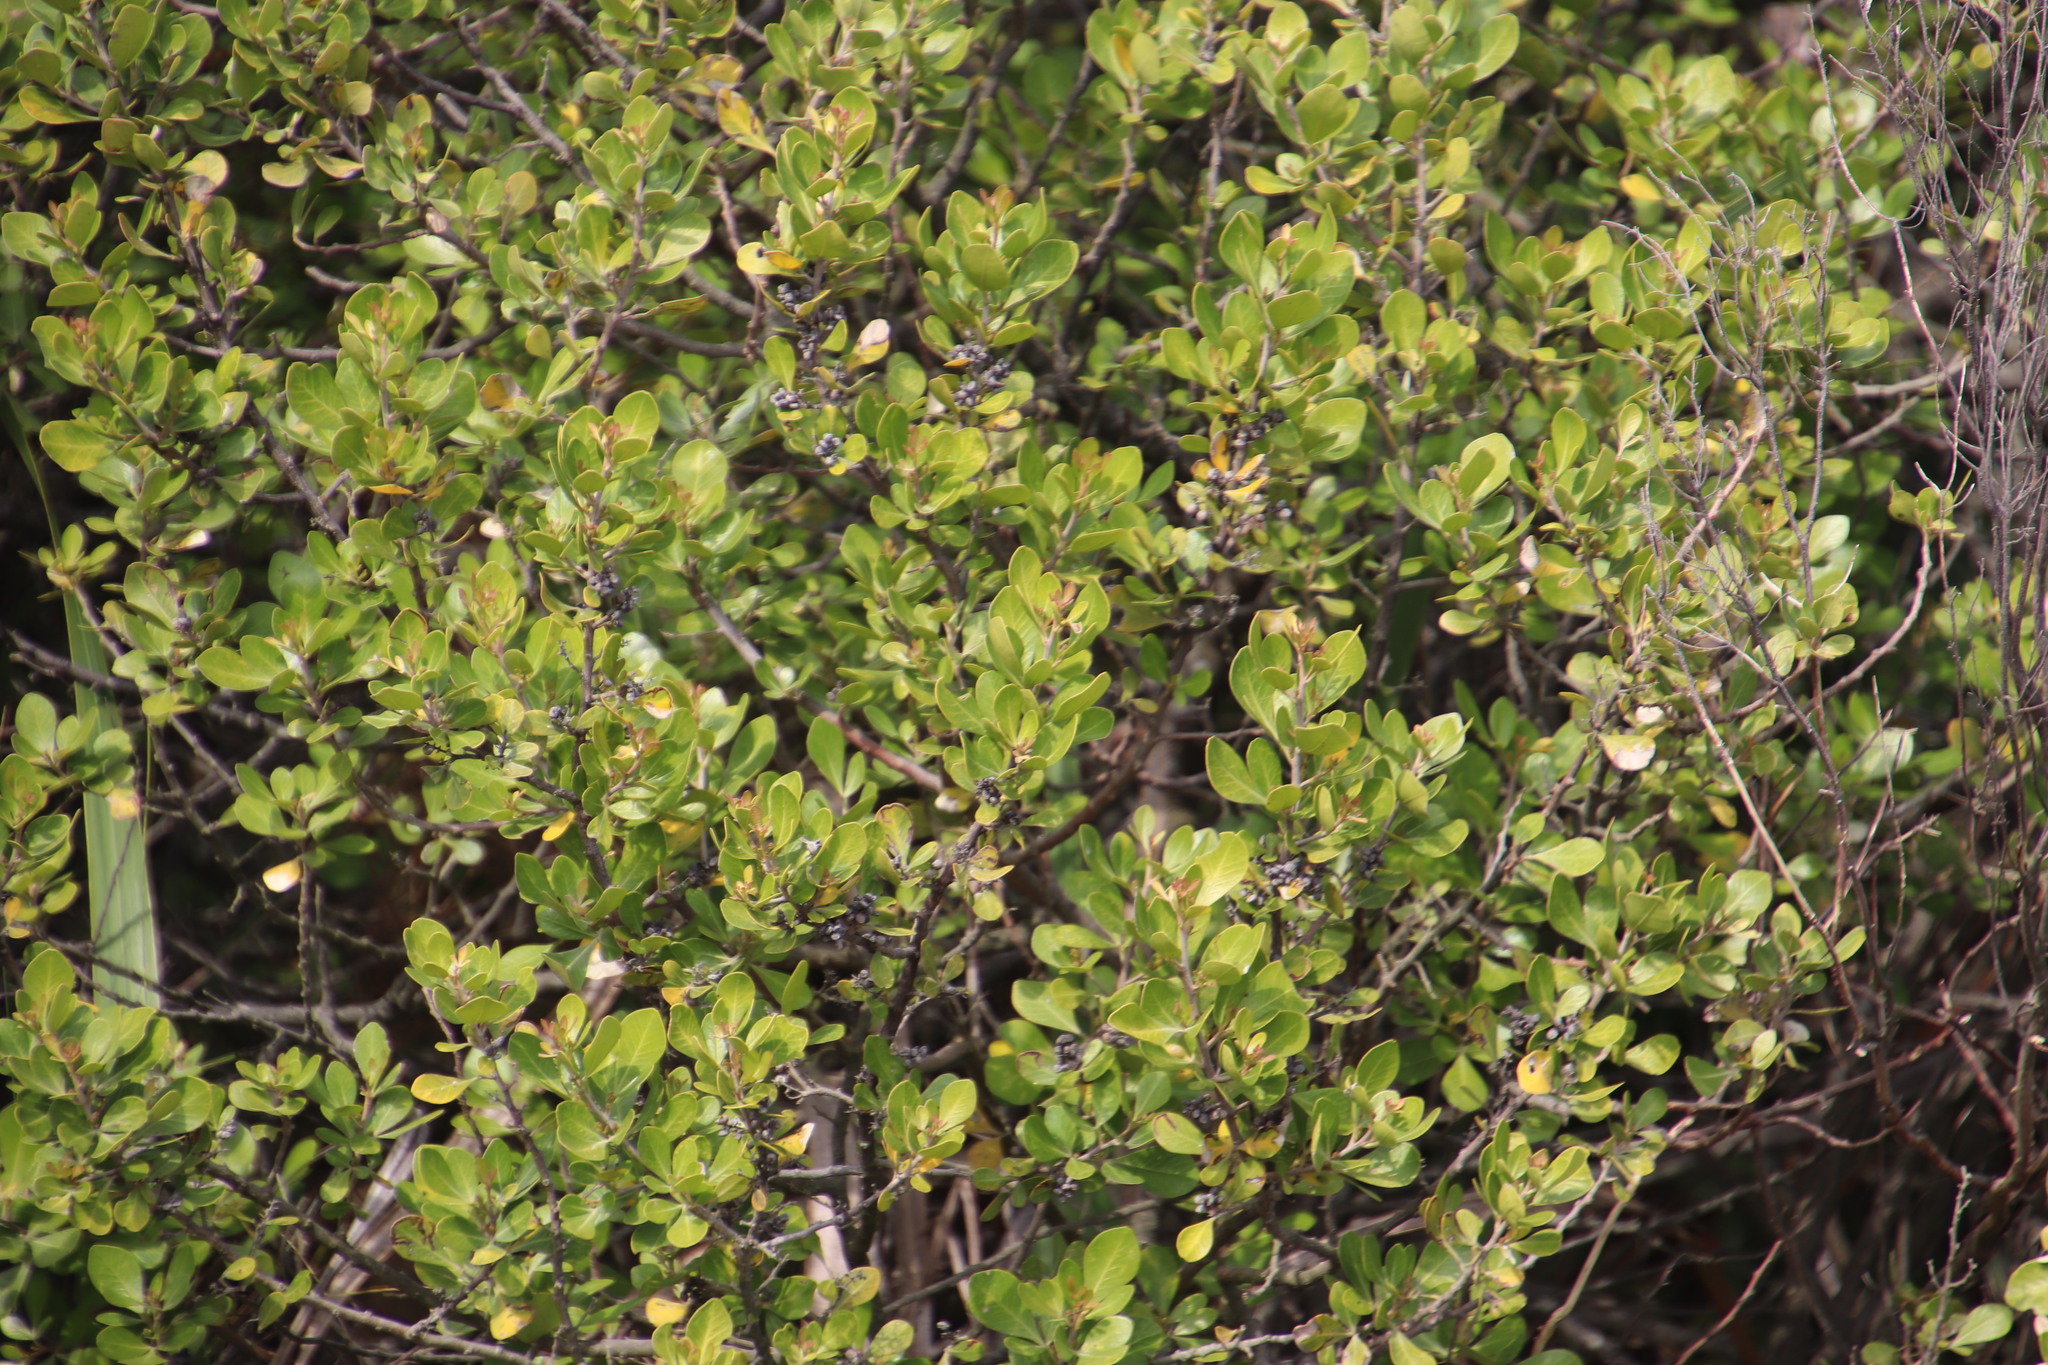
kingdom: Plantae
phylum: Tracheophyta
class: Magnoliopsida
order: Sapindales
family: Anacardiaceae
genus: Searsia
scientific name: Searsia lucida
